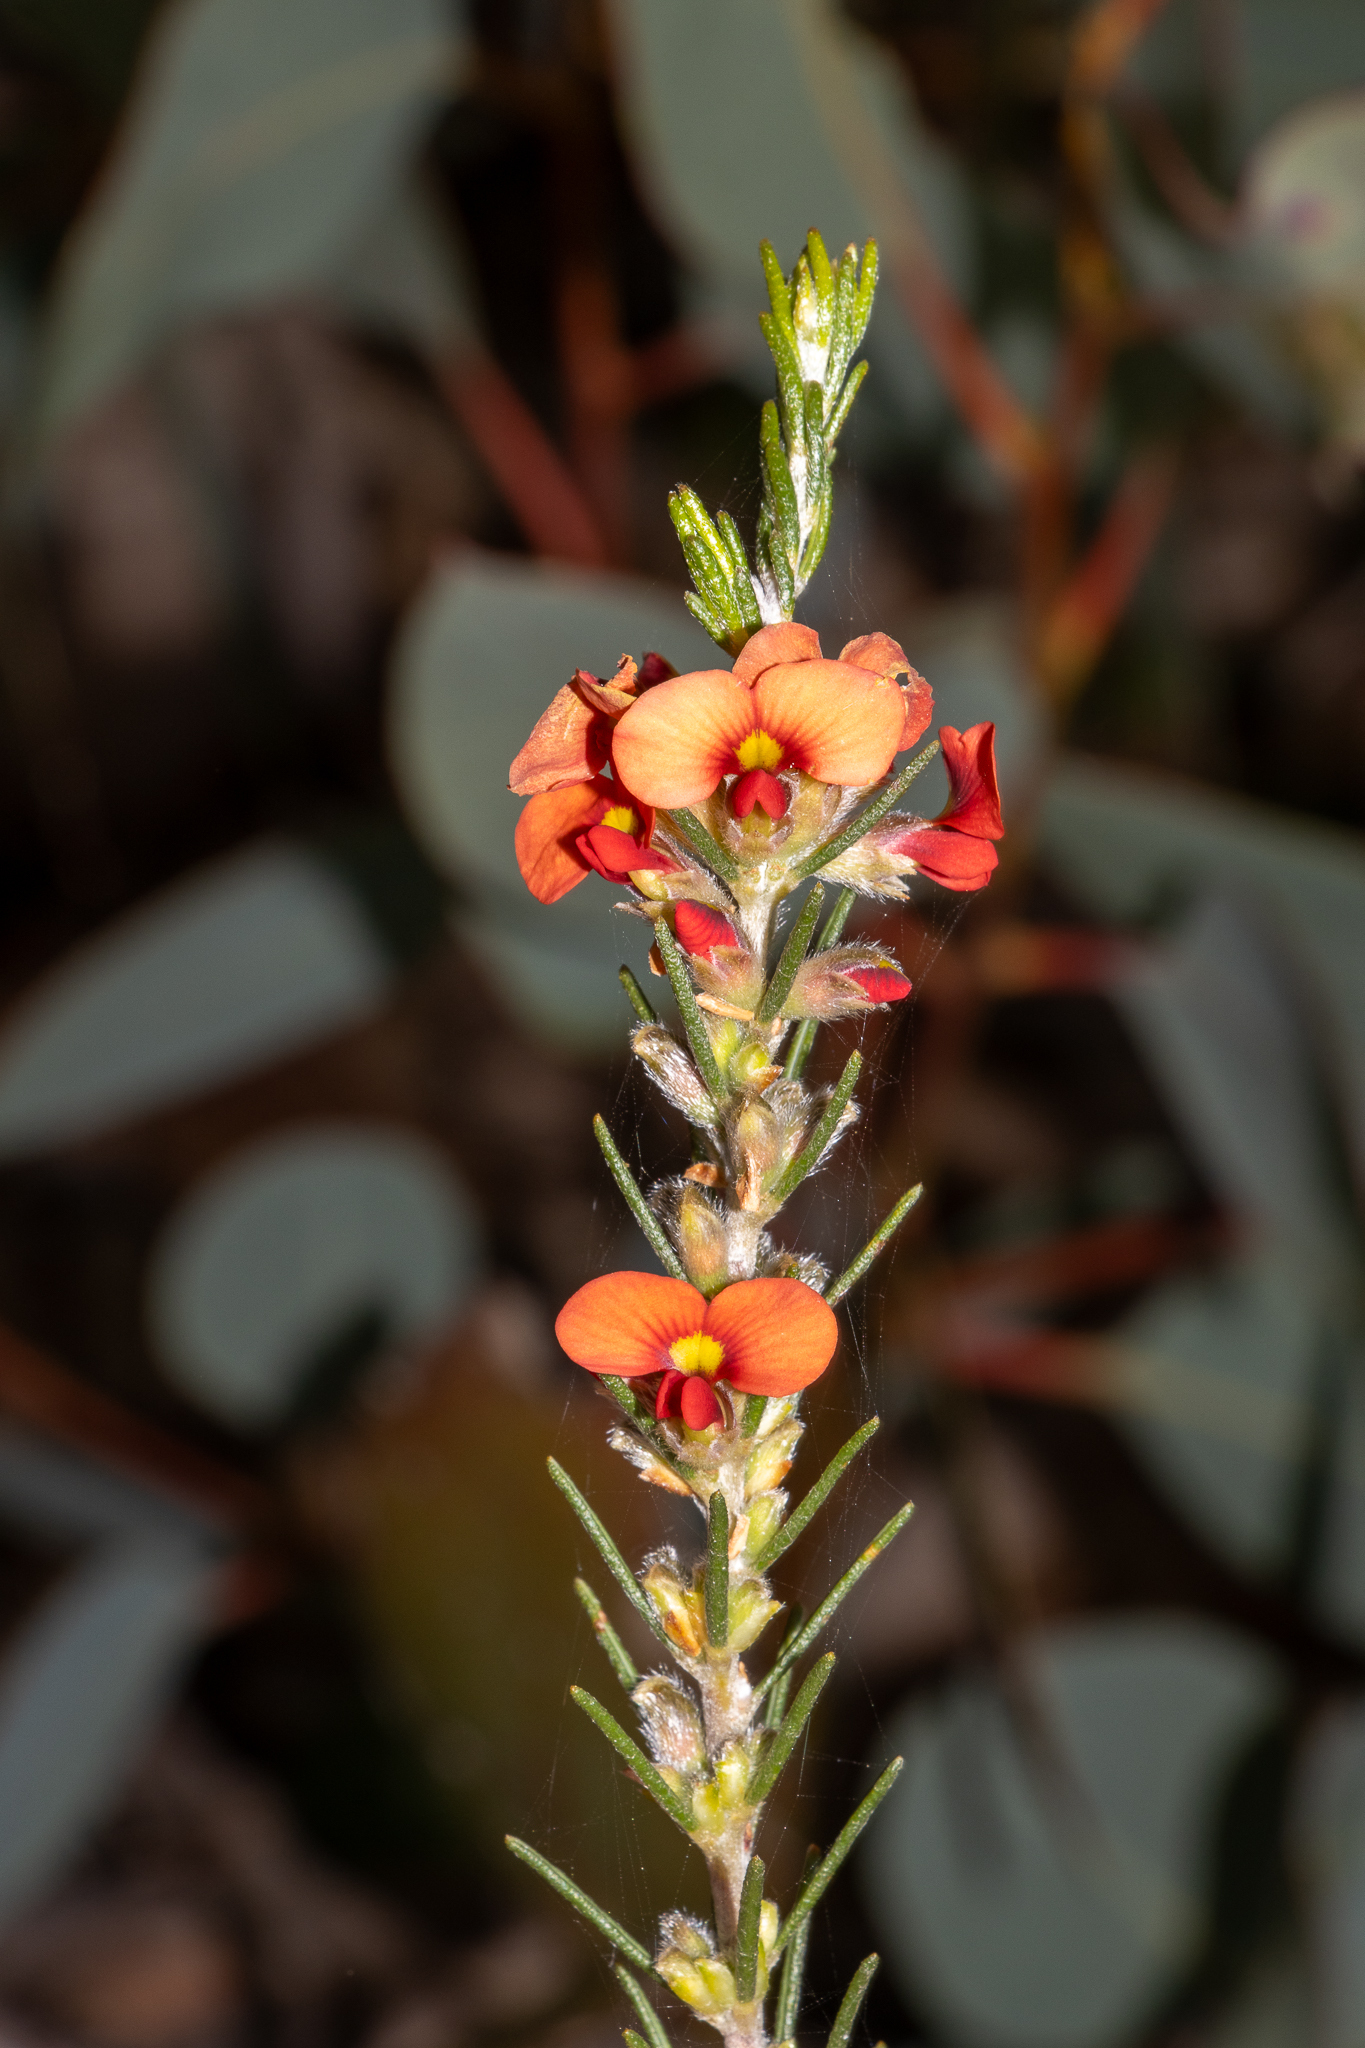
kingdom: Plantae
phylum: Tracheophyta
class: Magnoliopsida
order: Fabales
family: Fabaceae
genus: Dillwynia
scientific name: Dillwynia sericea
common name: Showy parrot-pea
